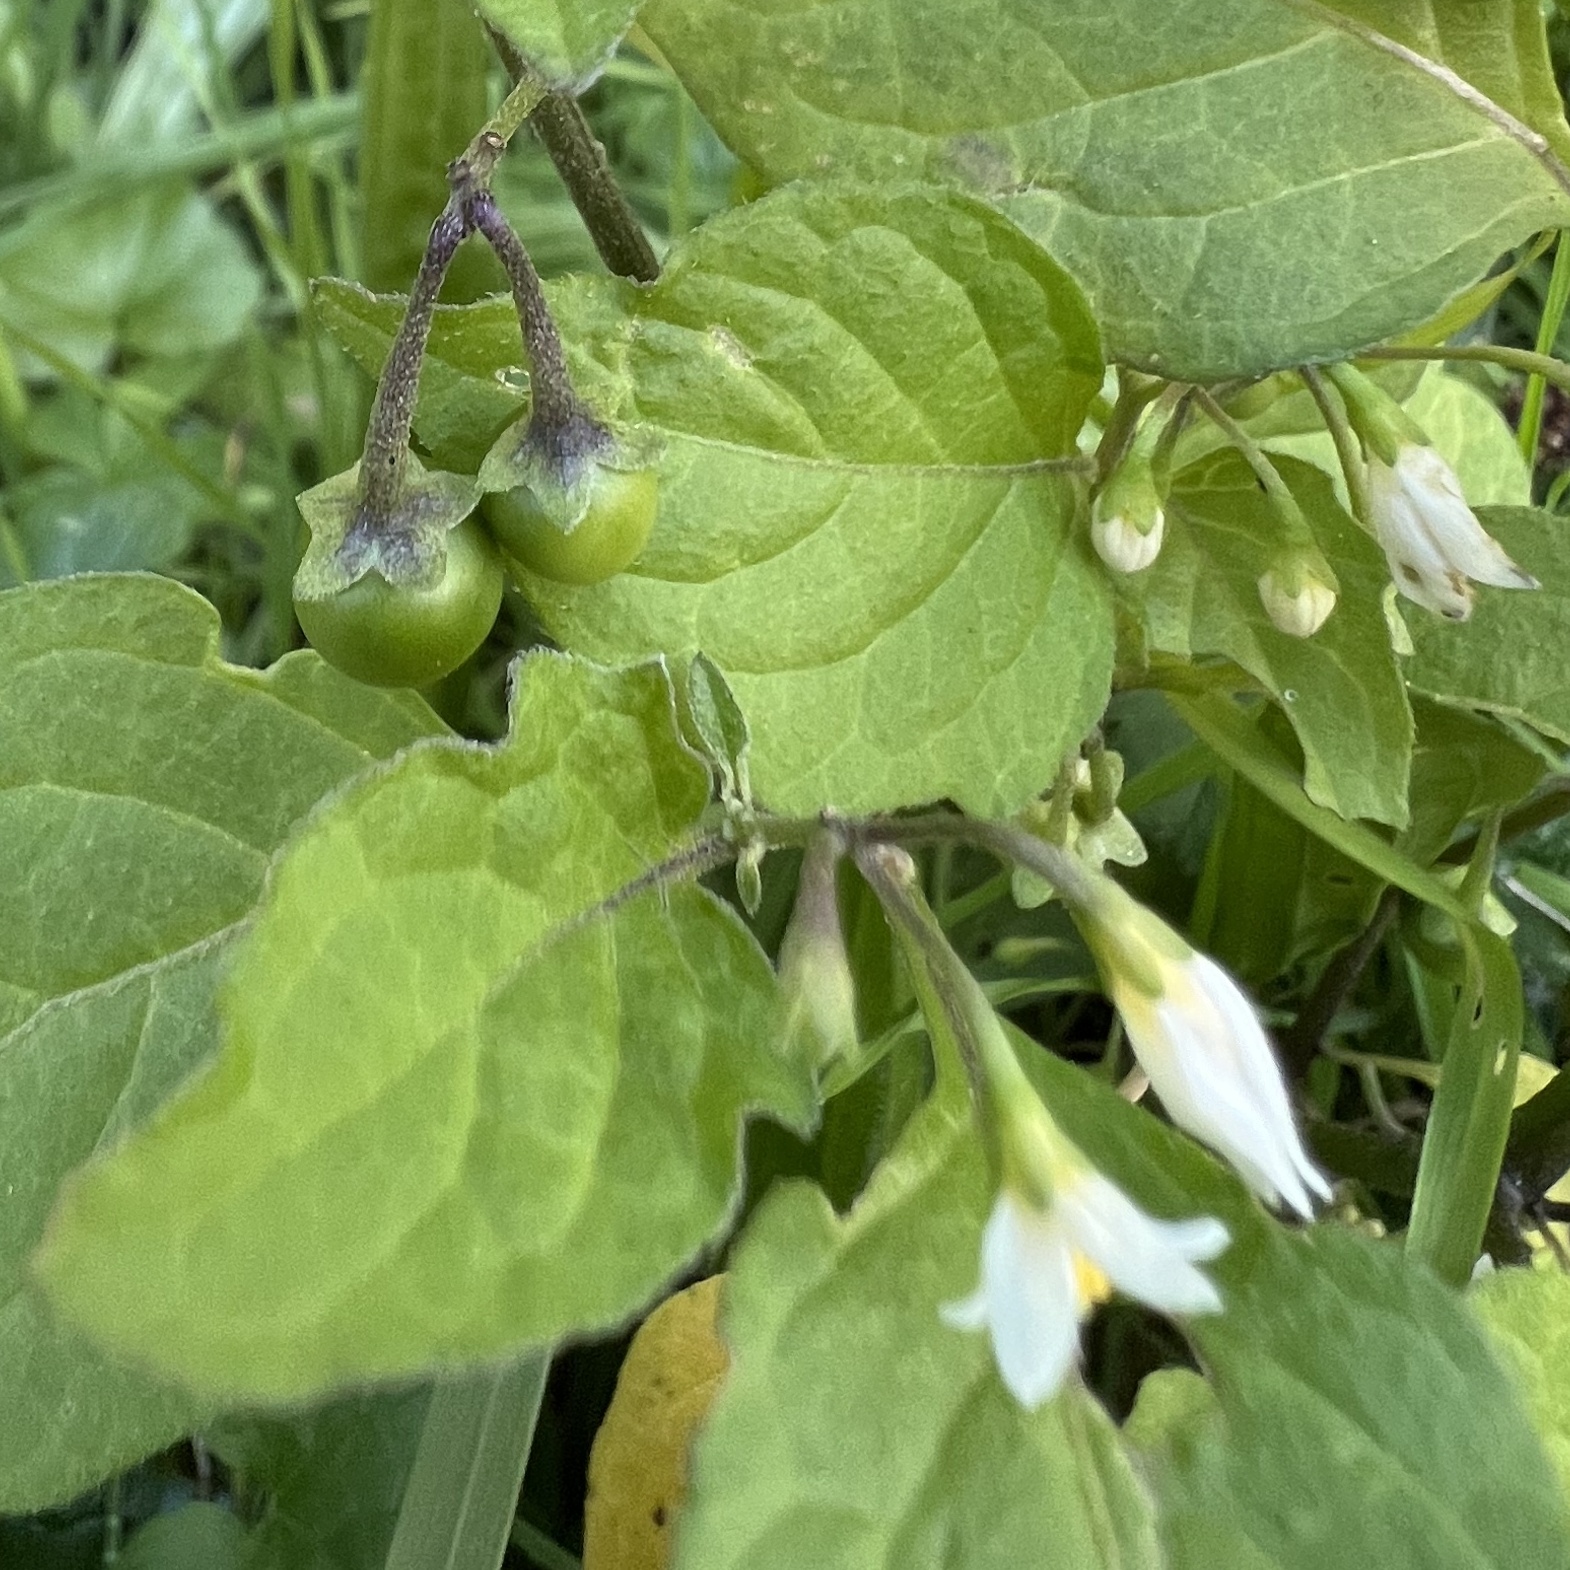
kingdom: Plantae
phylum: Tracheophyta
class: Magnoliopsida
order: Solanales
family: Solanaceae
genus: Solanum
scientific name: Solanum nigrum
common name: Black nightshade
